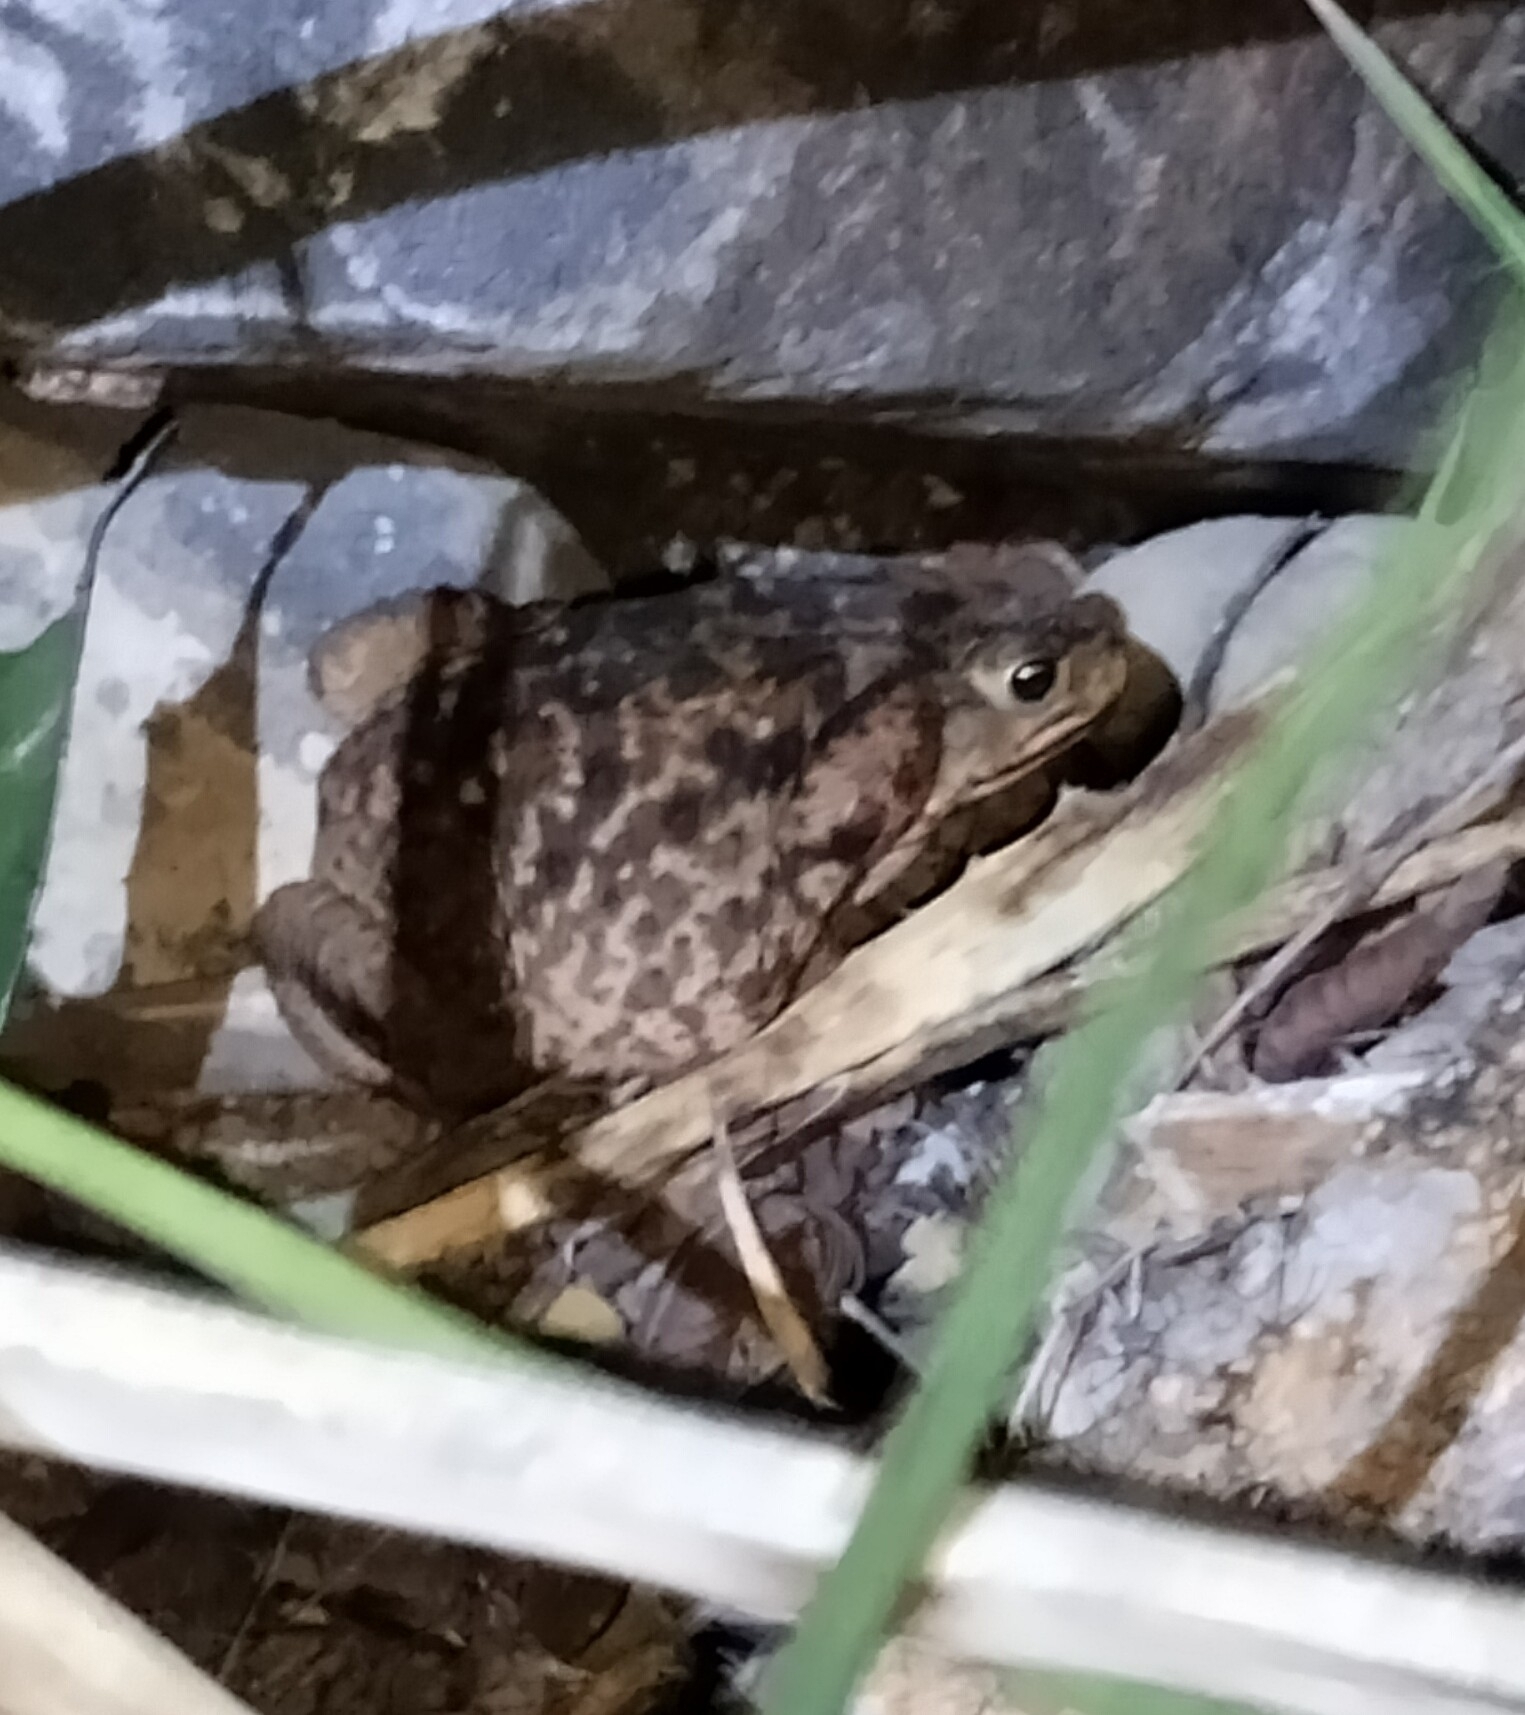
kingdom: Animalia
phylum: Chordata
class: Amphibia
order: Anura
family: Bufonidae
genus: Rhinella
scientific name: Rhinella horribilis
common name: Mesoamerican cane toad
